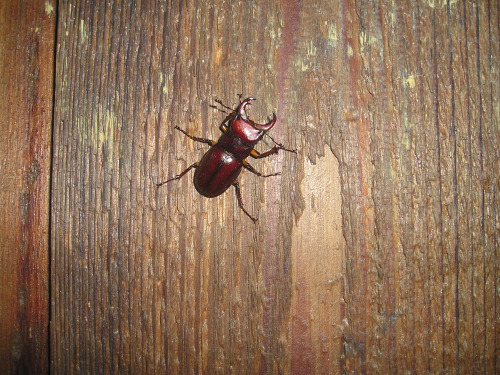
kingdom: Animalia
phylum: Arthropoda
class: Insecta
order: Coleoptera
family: Lucanidae
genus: Lucanus
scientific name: Lucanus capreolus
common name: Stag beetle
